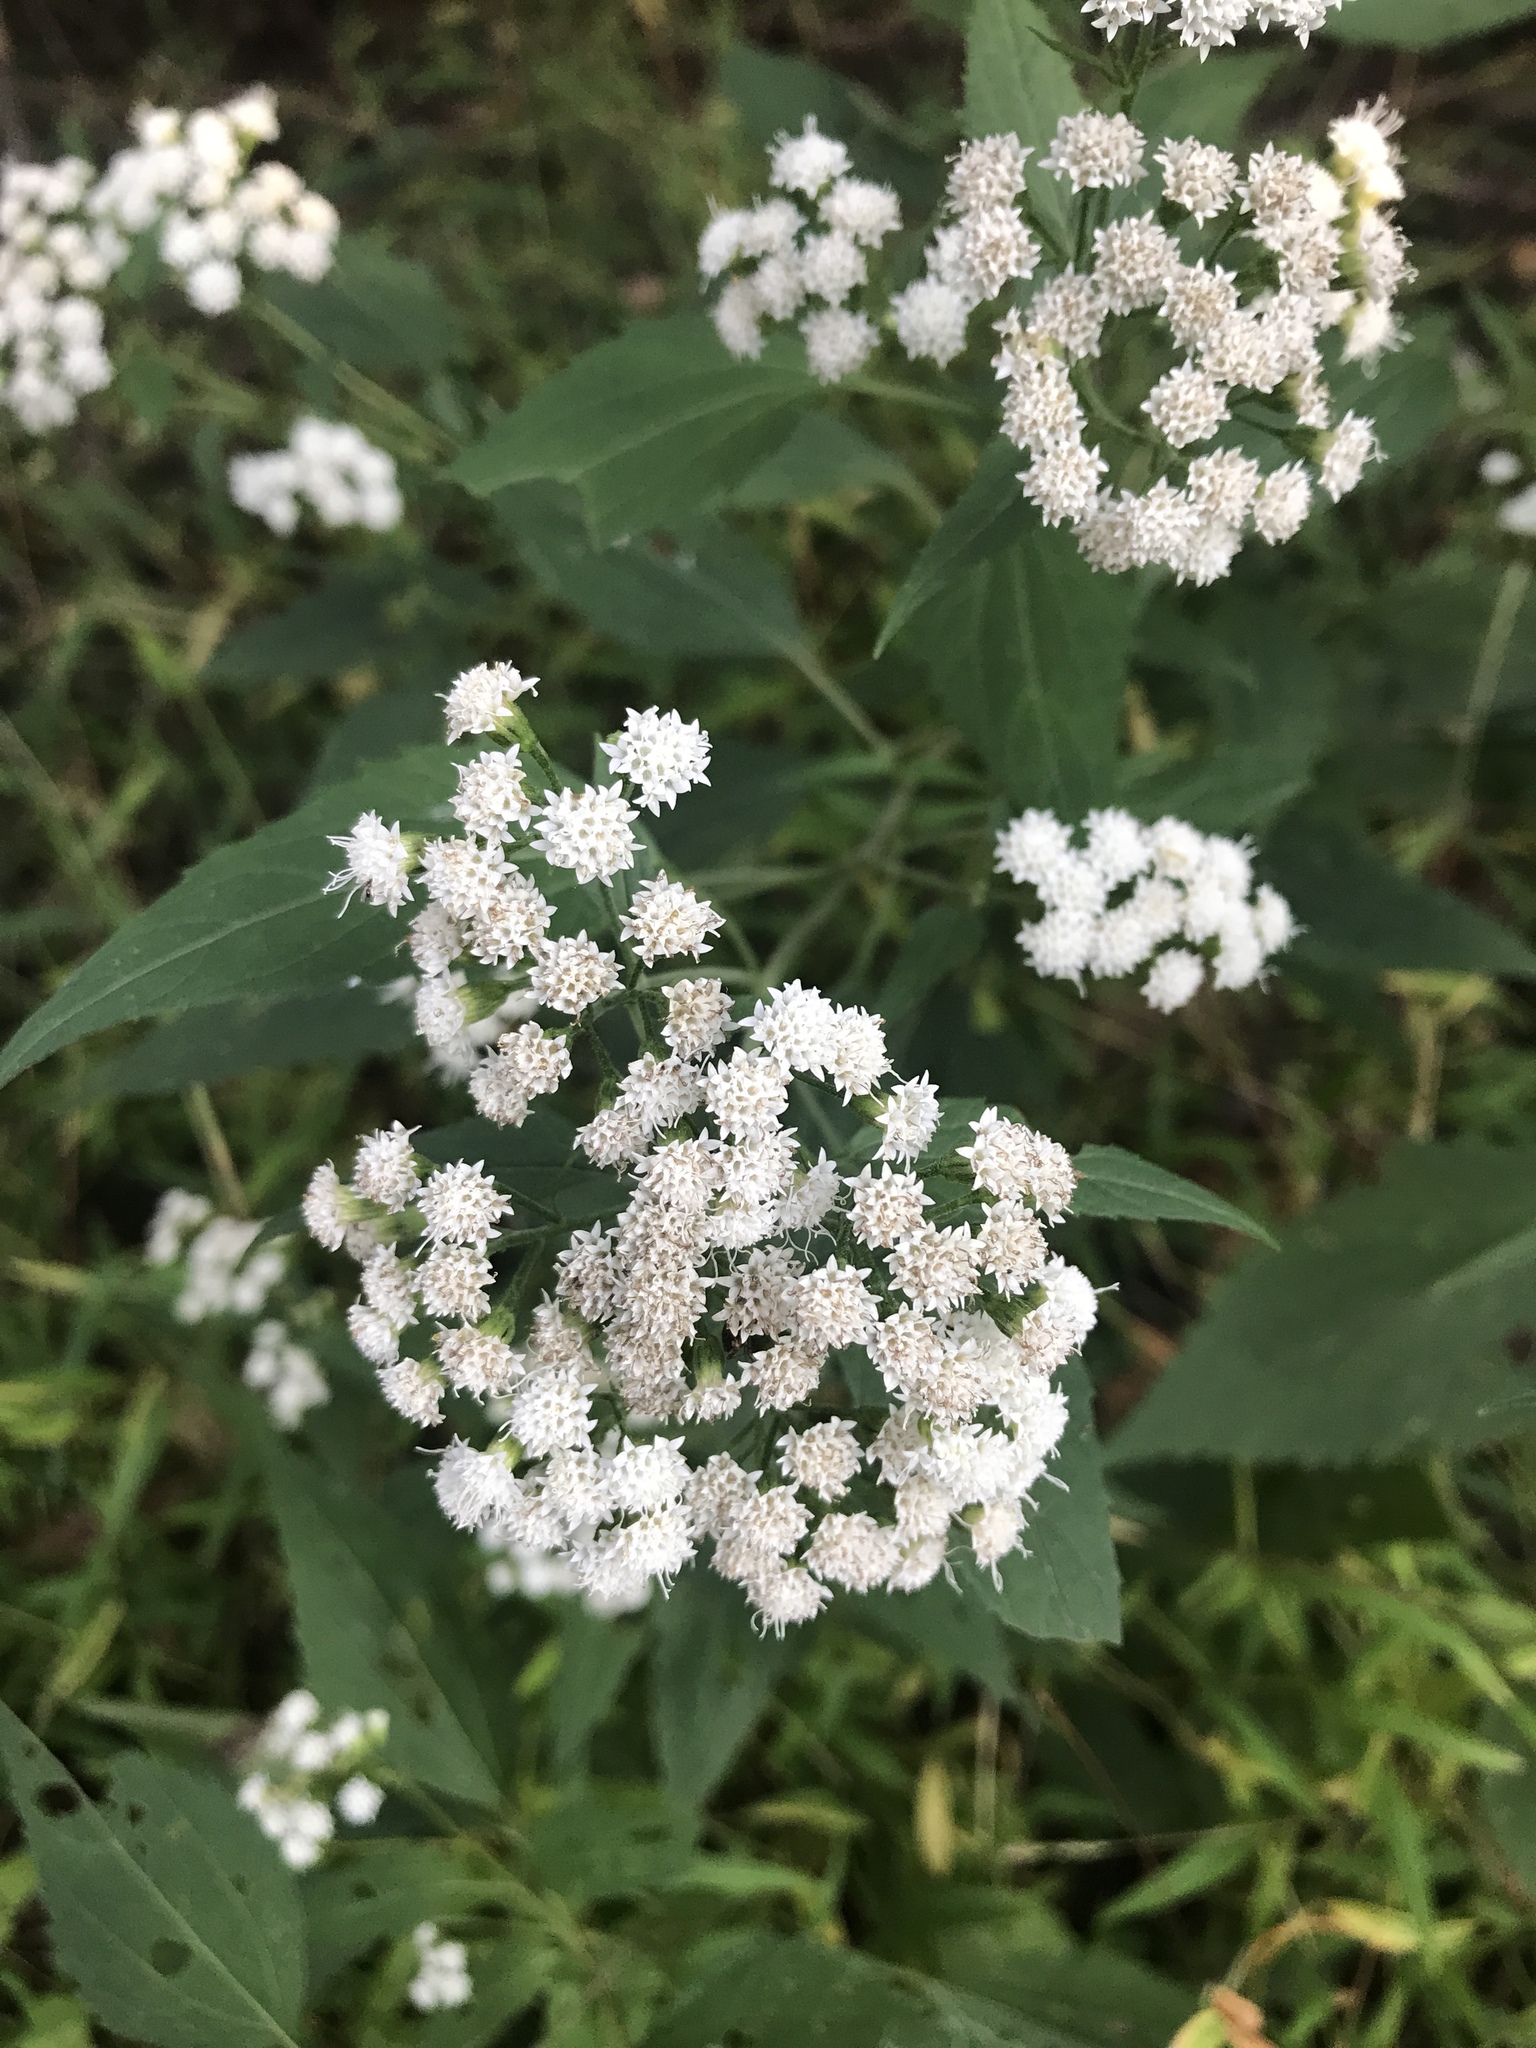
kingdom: Plantae
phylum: Tracheophyta
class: Magnoliopsida
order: Asterales
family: Asteraceae
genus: Ageratina
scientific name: Ageratina altissima
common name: White snakeroot
